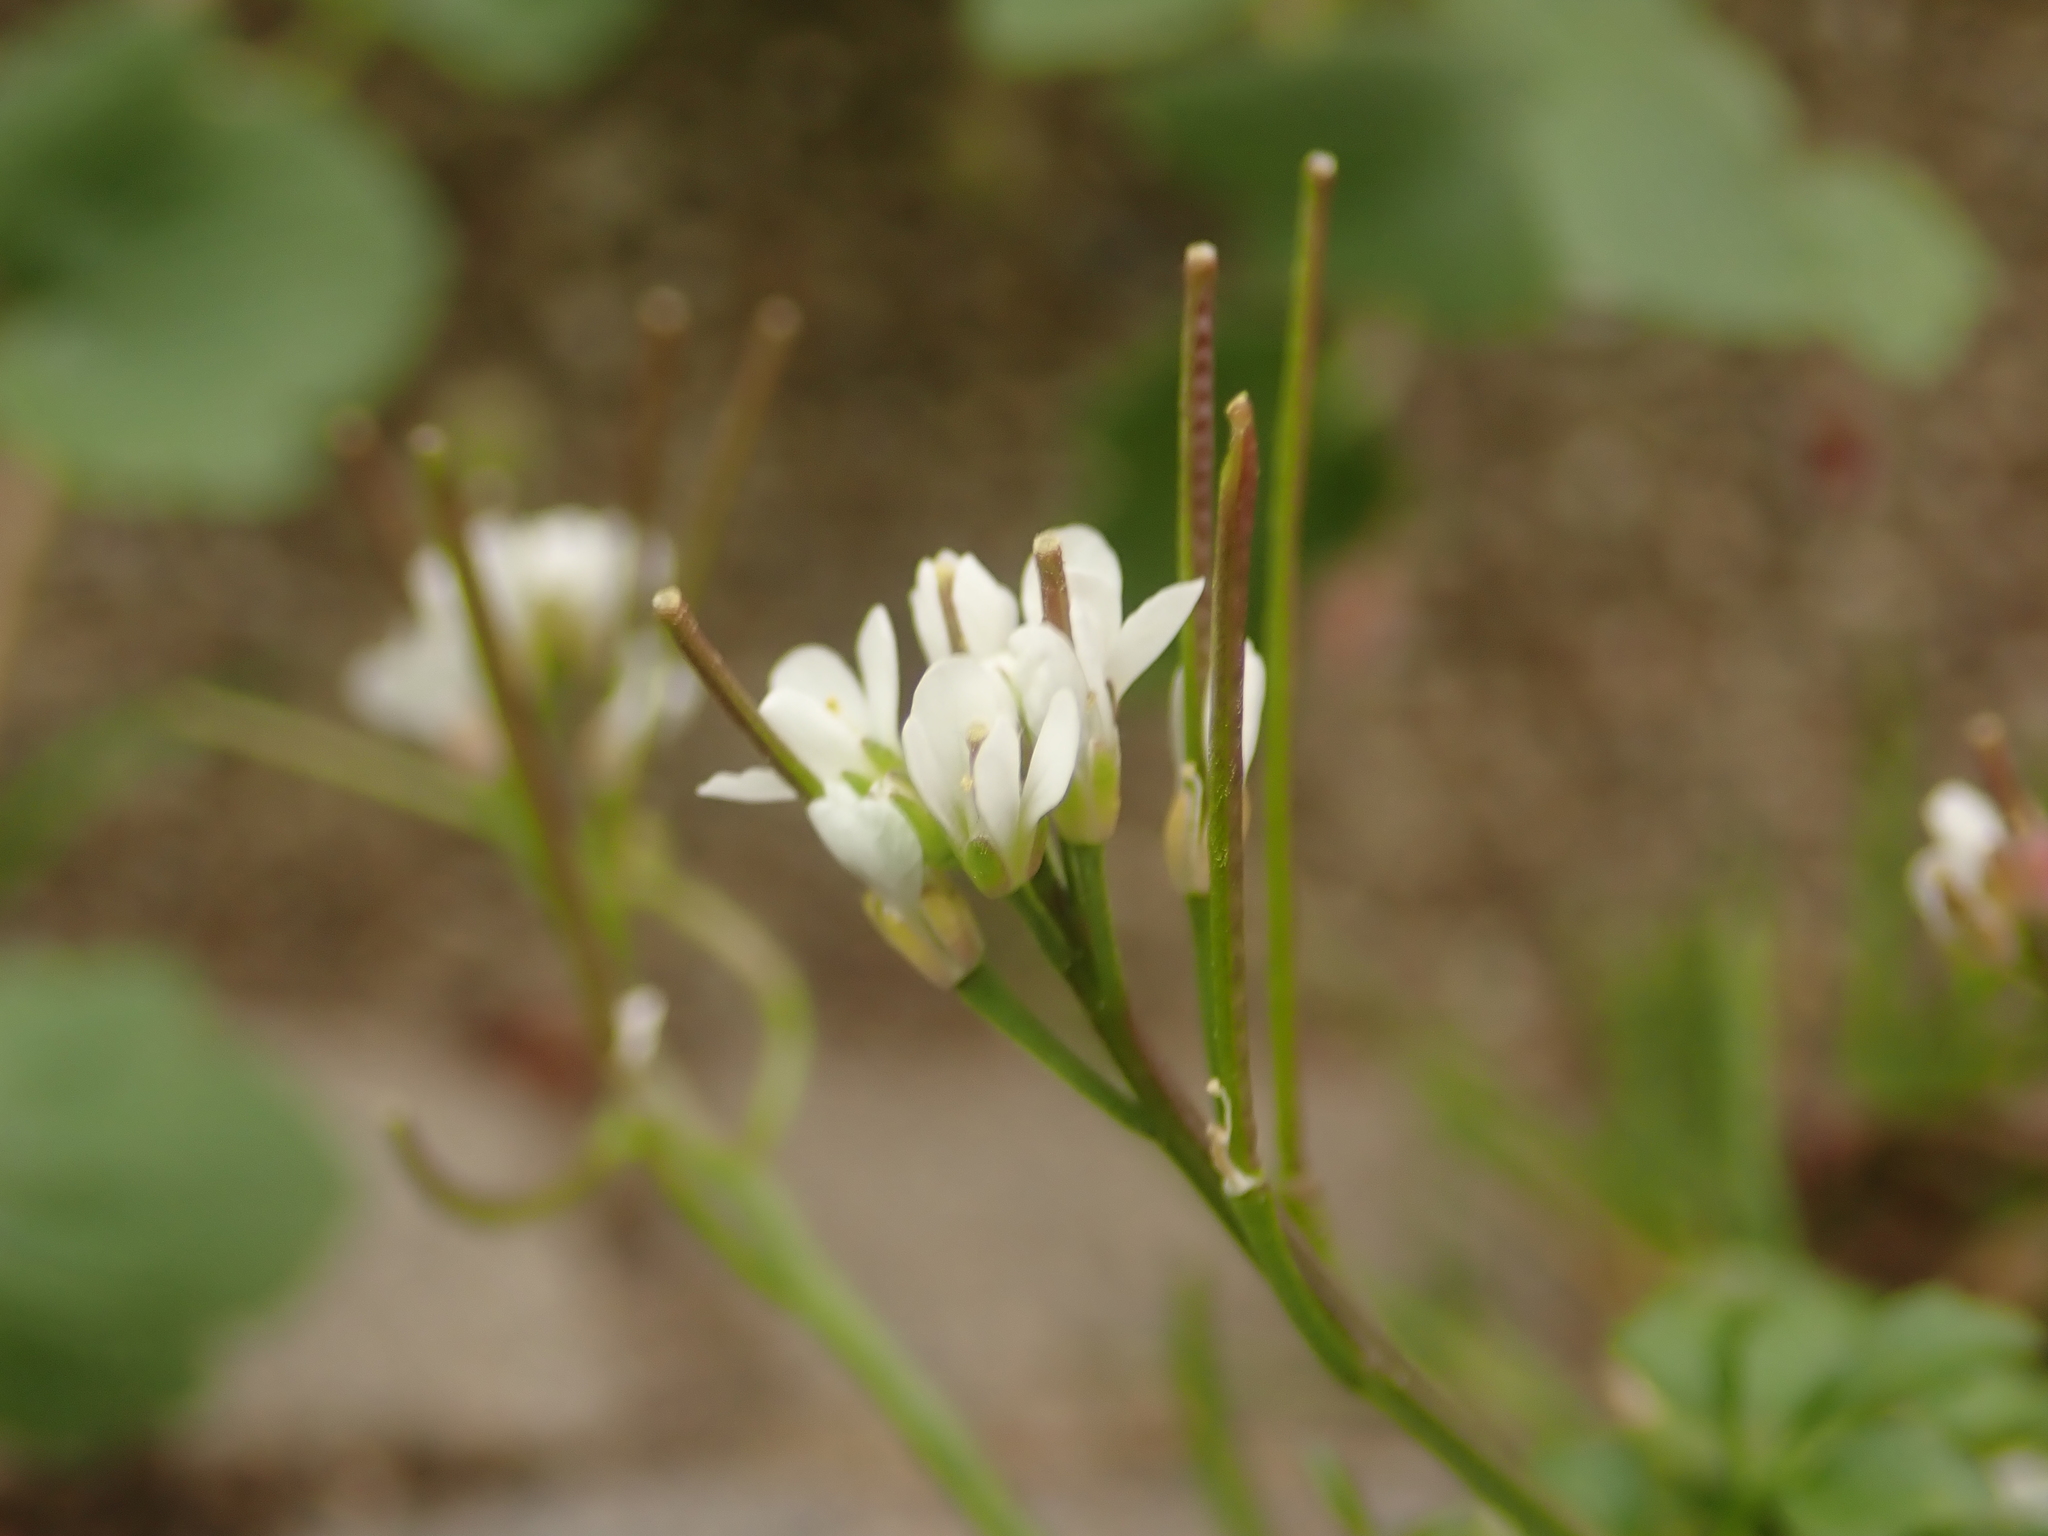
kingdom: Plantae
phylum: Tracheophyta
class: Magnoliopsida
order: Brassicales
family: Brassicaceae
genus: Cardamine
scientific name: Cardamine hirsuta
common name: Hairy bittercress
